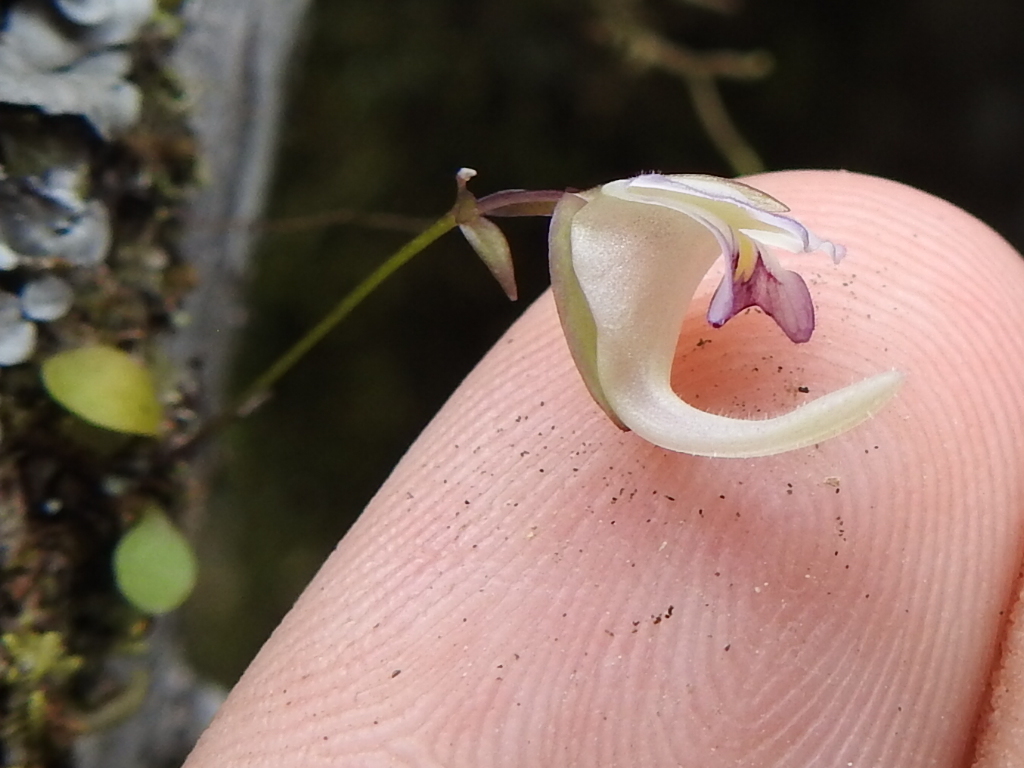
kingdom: Plantae
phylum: Tracheophyta
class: Magnoliopsida
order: Lamiales
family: Lentibulariaceae
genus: Utricularia
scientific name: Utricularia jamesoniana
